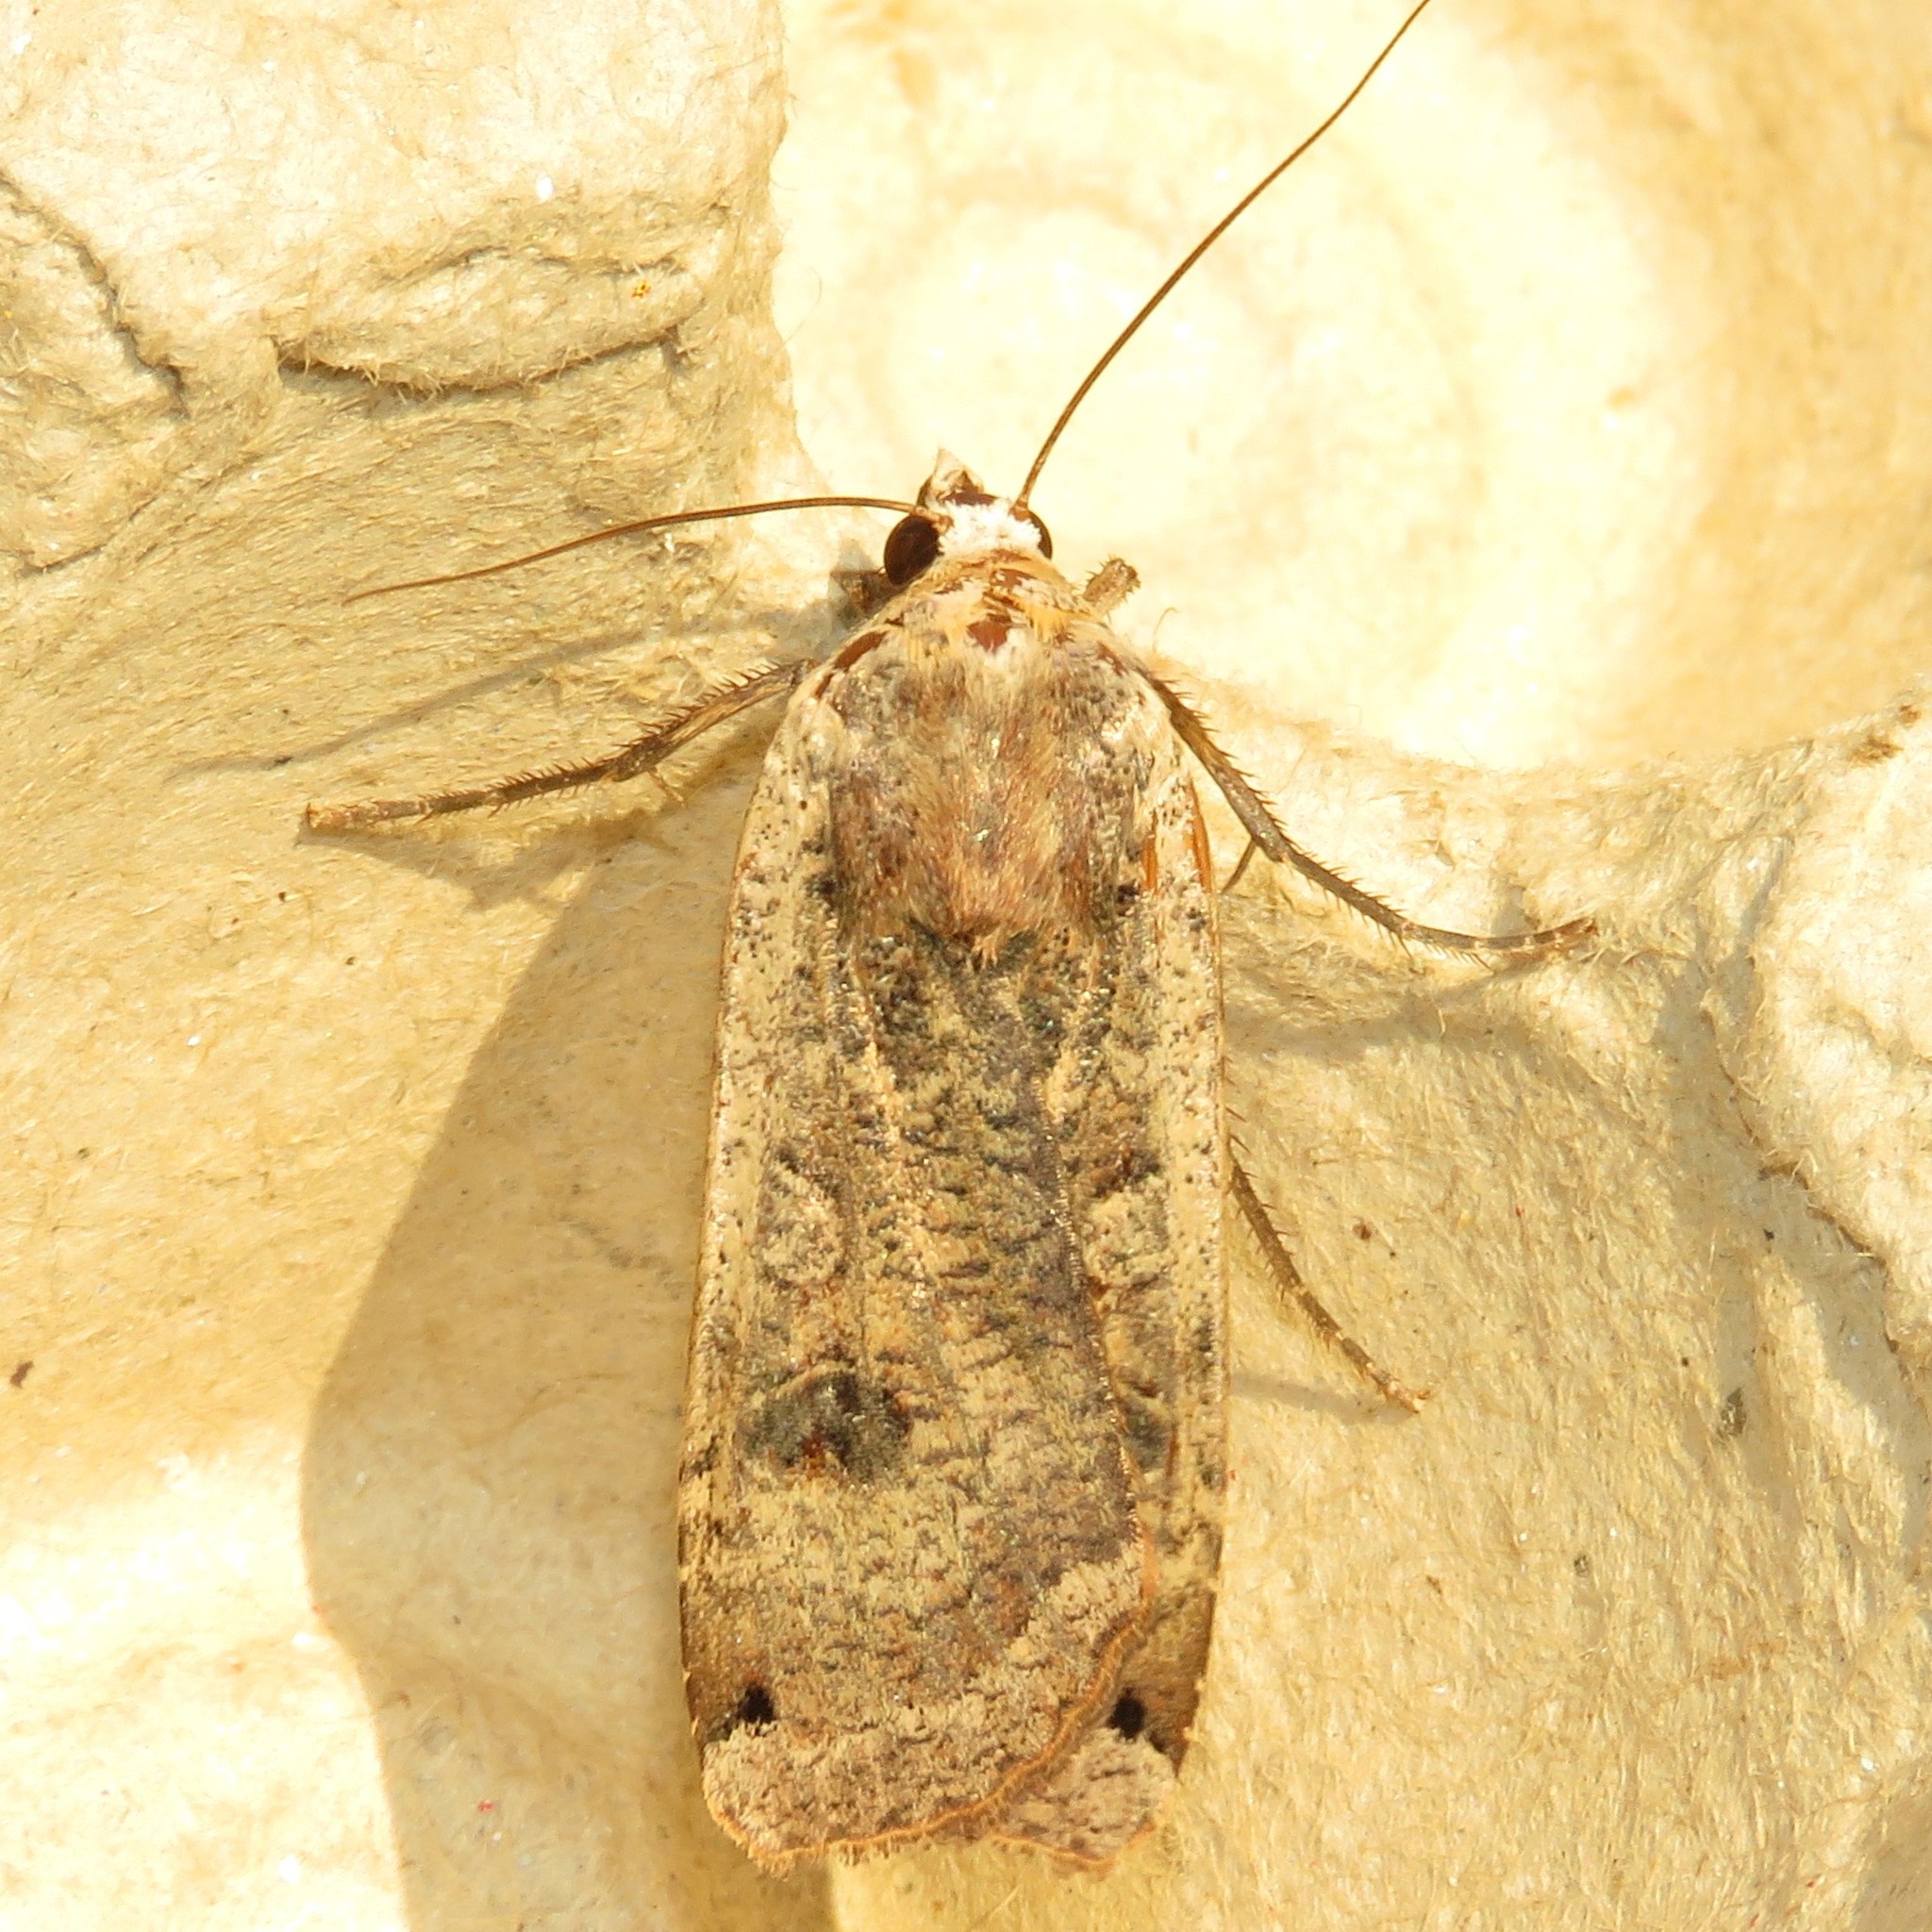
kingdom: Animalia
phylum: Arthropoda
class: Insecta
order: Lepidoptera
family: Noctuidae
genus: Noctua
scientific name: Noctua pronuba
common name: Large yellow underwing
